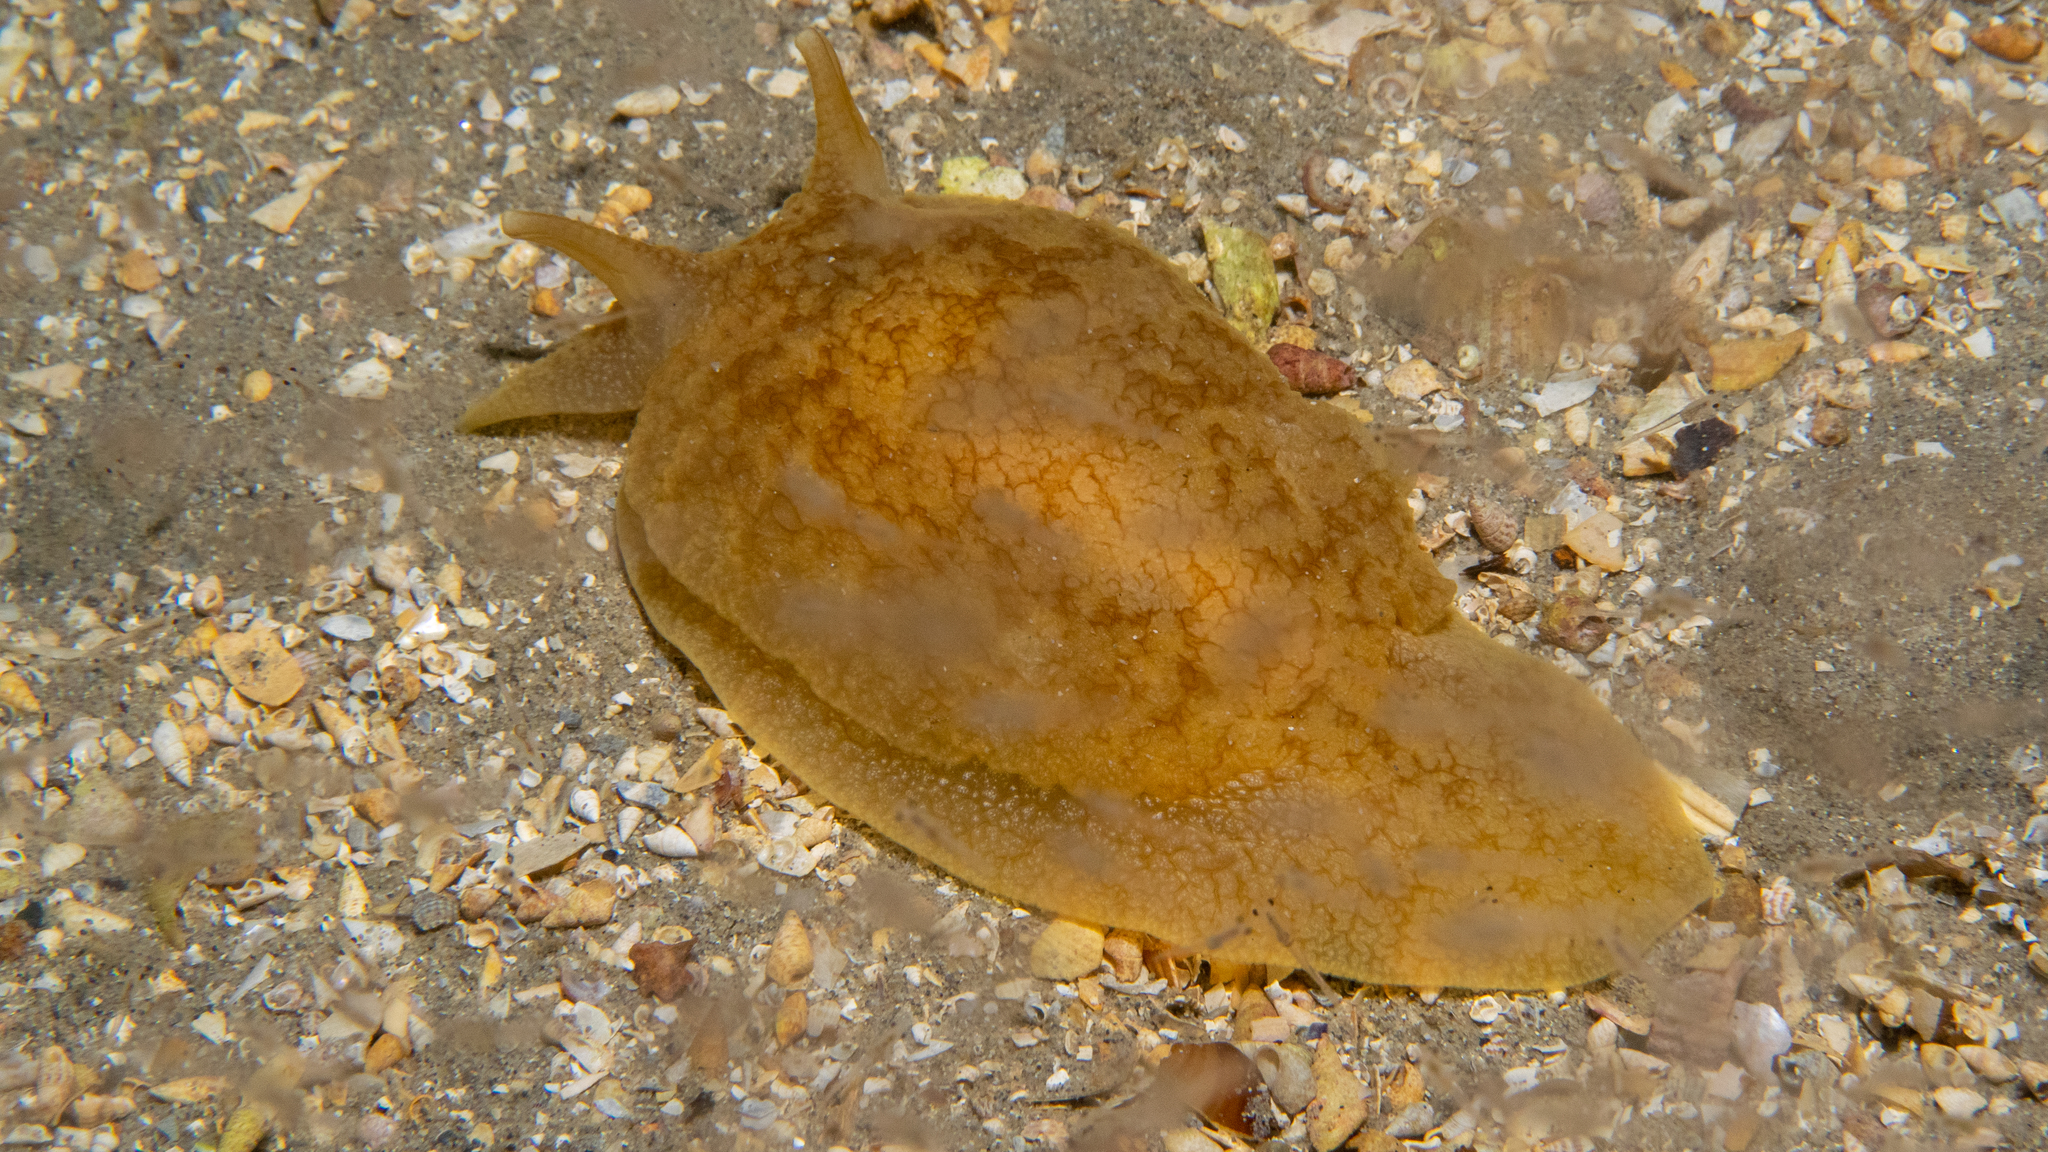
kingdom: Animalia
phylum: Mollusca
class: Gastropoda
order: Pleurobranchida
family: Pleurobranchaeidae
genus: Pleurobranchaea
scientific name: Pleurobranchaea maculata
